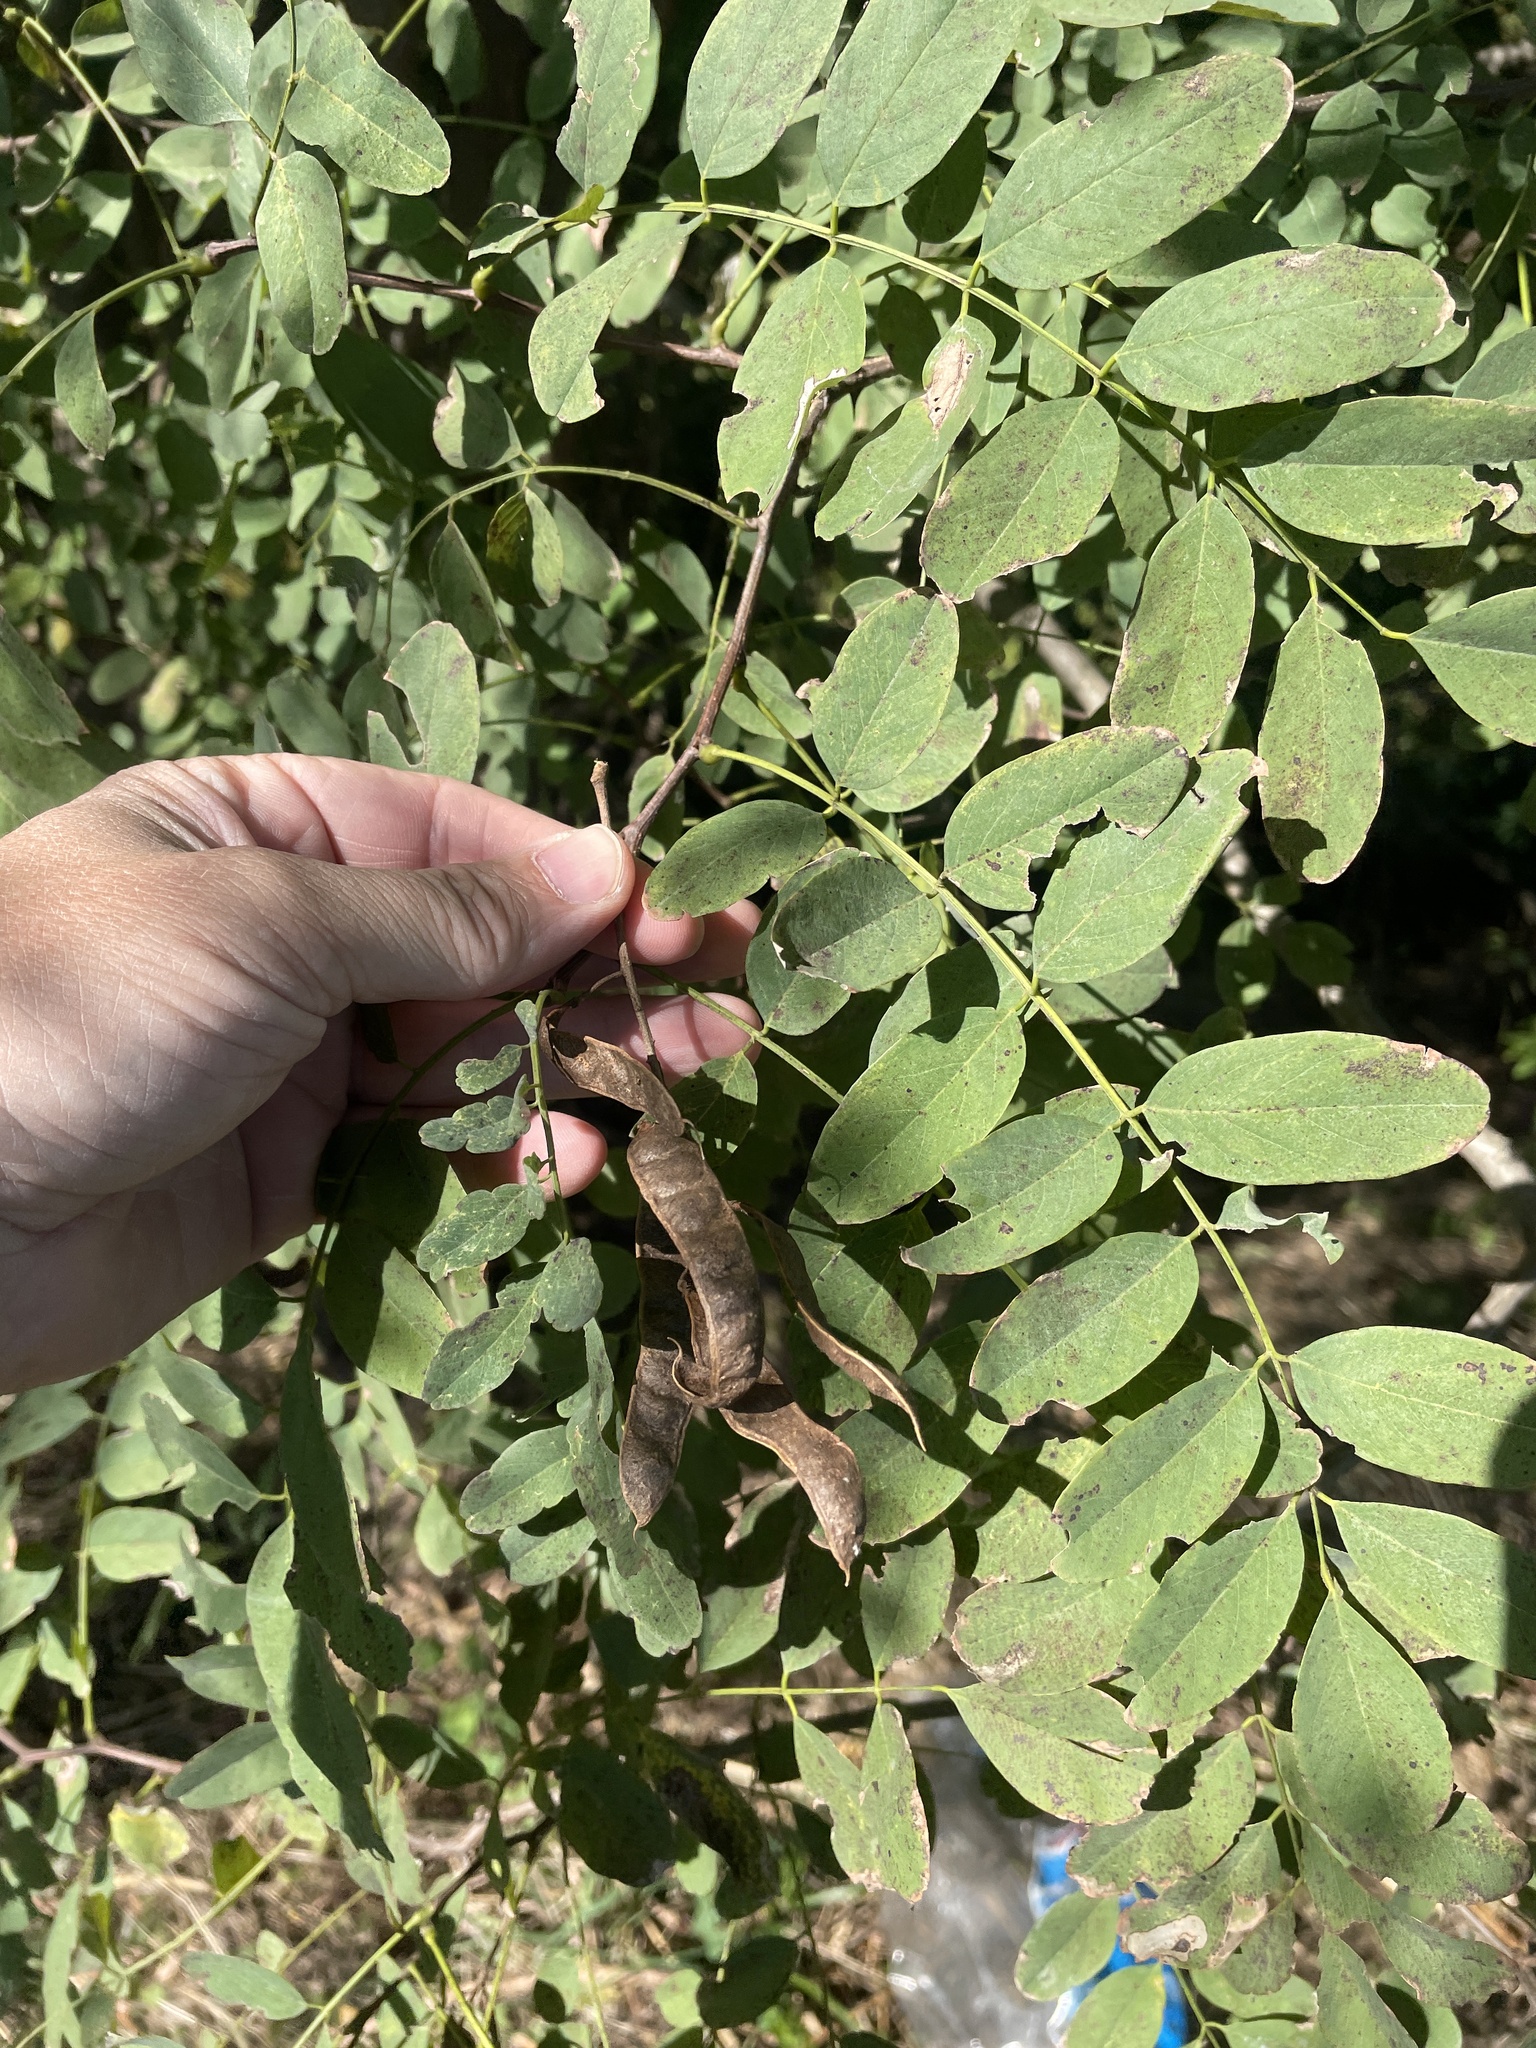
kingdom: Plantae
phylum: Tracheophyta
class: Magnoliopsida
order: Fabales
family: Fabaceae
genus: Robinia
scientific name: Robinia pseudoacacia
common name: Black locust
